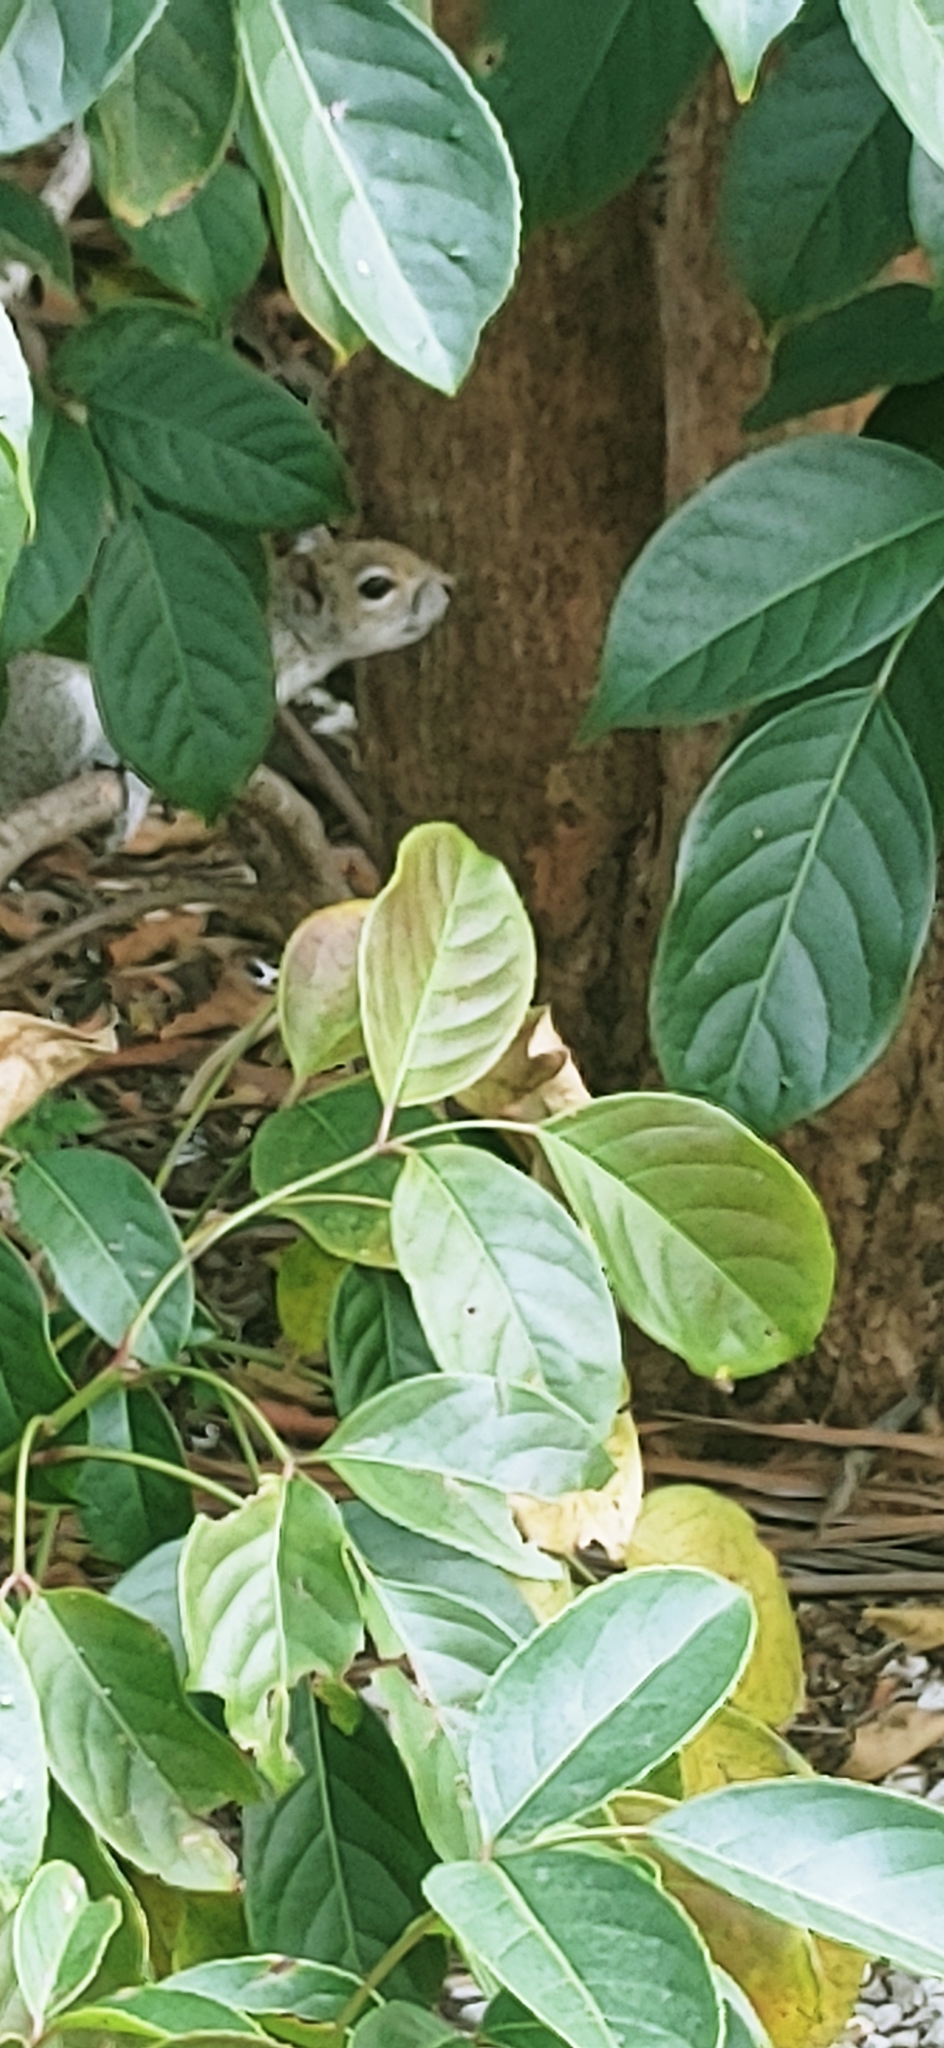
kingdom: Animalia
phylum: Chordata
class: Mammalia
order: Rodentia
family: Sciuridae
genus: Sciurus
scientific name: Sciurus carolinensis
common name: Eastern gray squirrel
